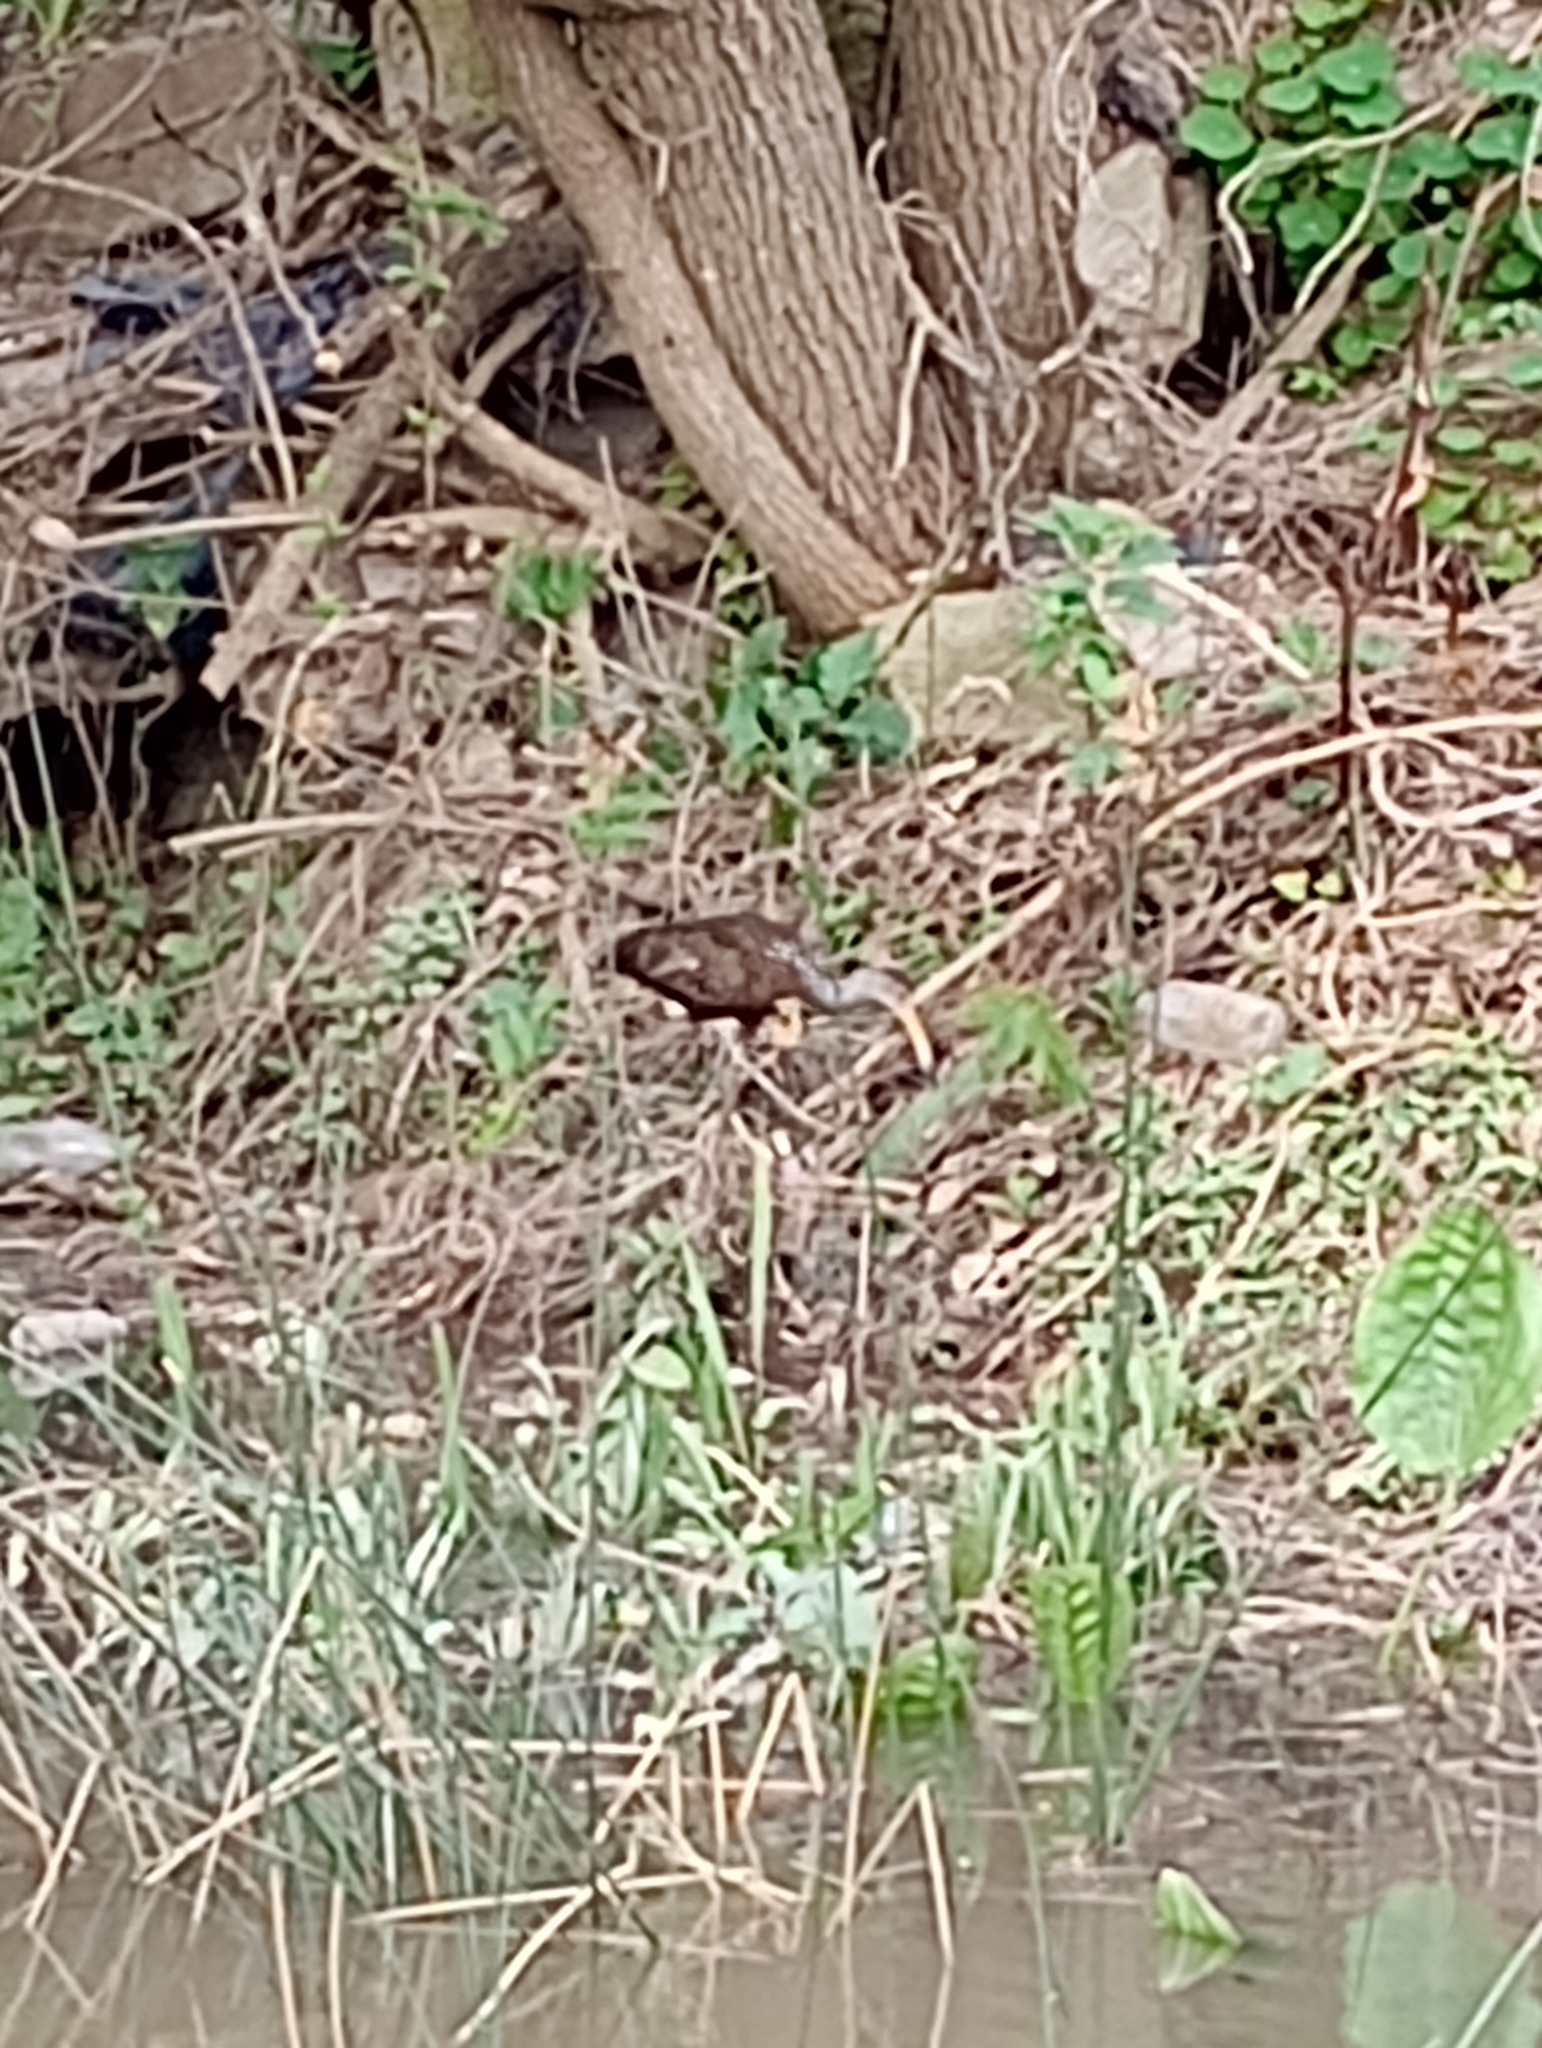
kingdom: Animalia
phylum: Chordata
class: Aves
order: Gruiformes
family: Aramidae
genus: Aramus
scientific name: Aramus guarauna
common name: Limpkin
